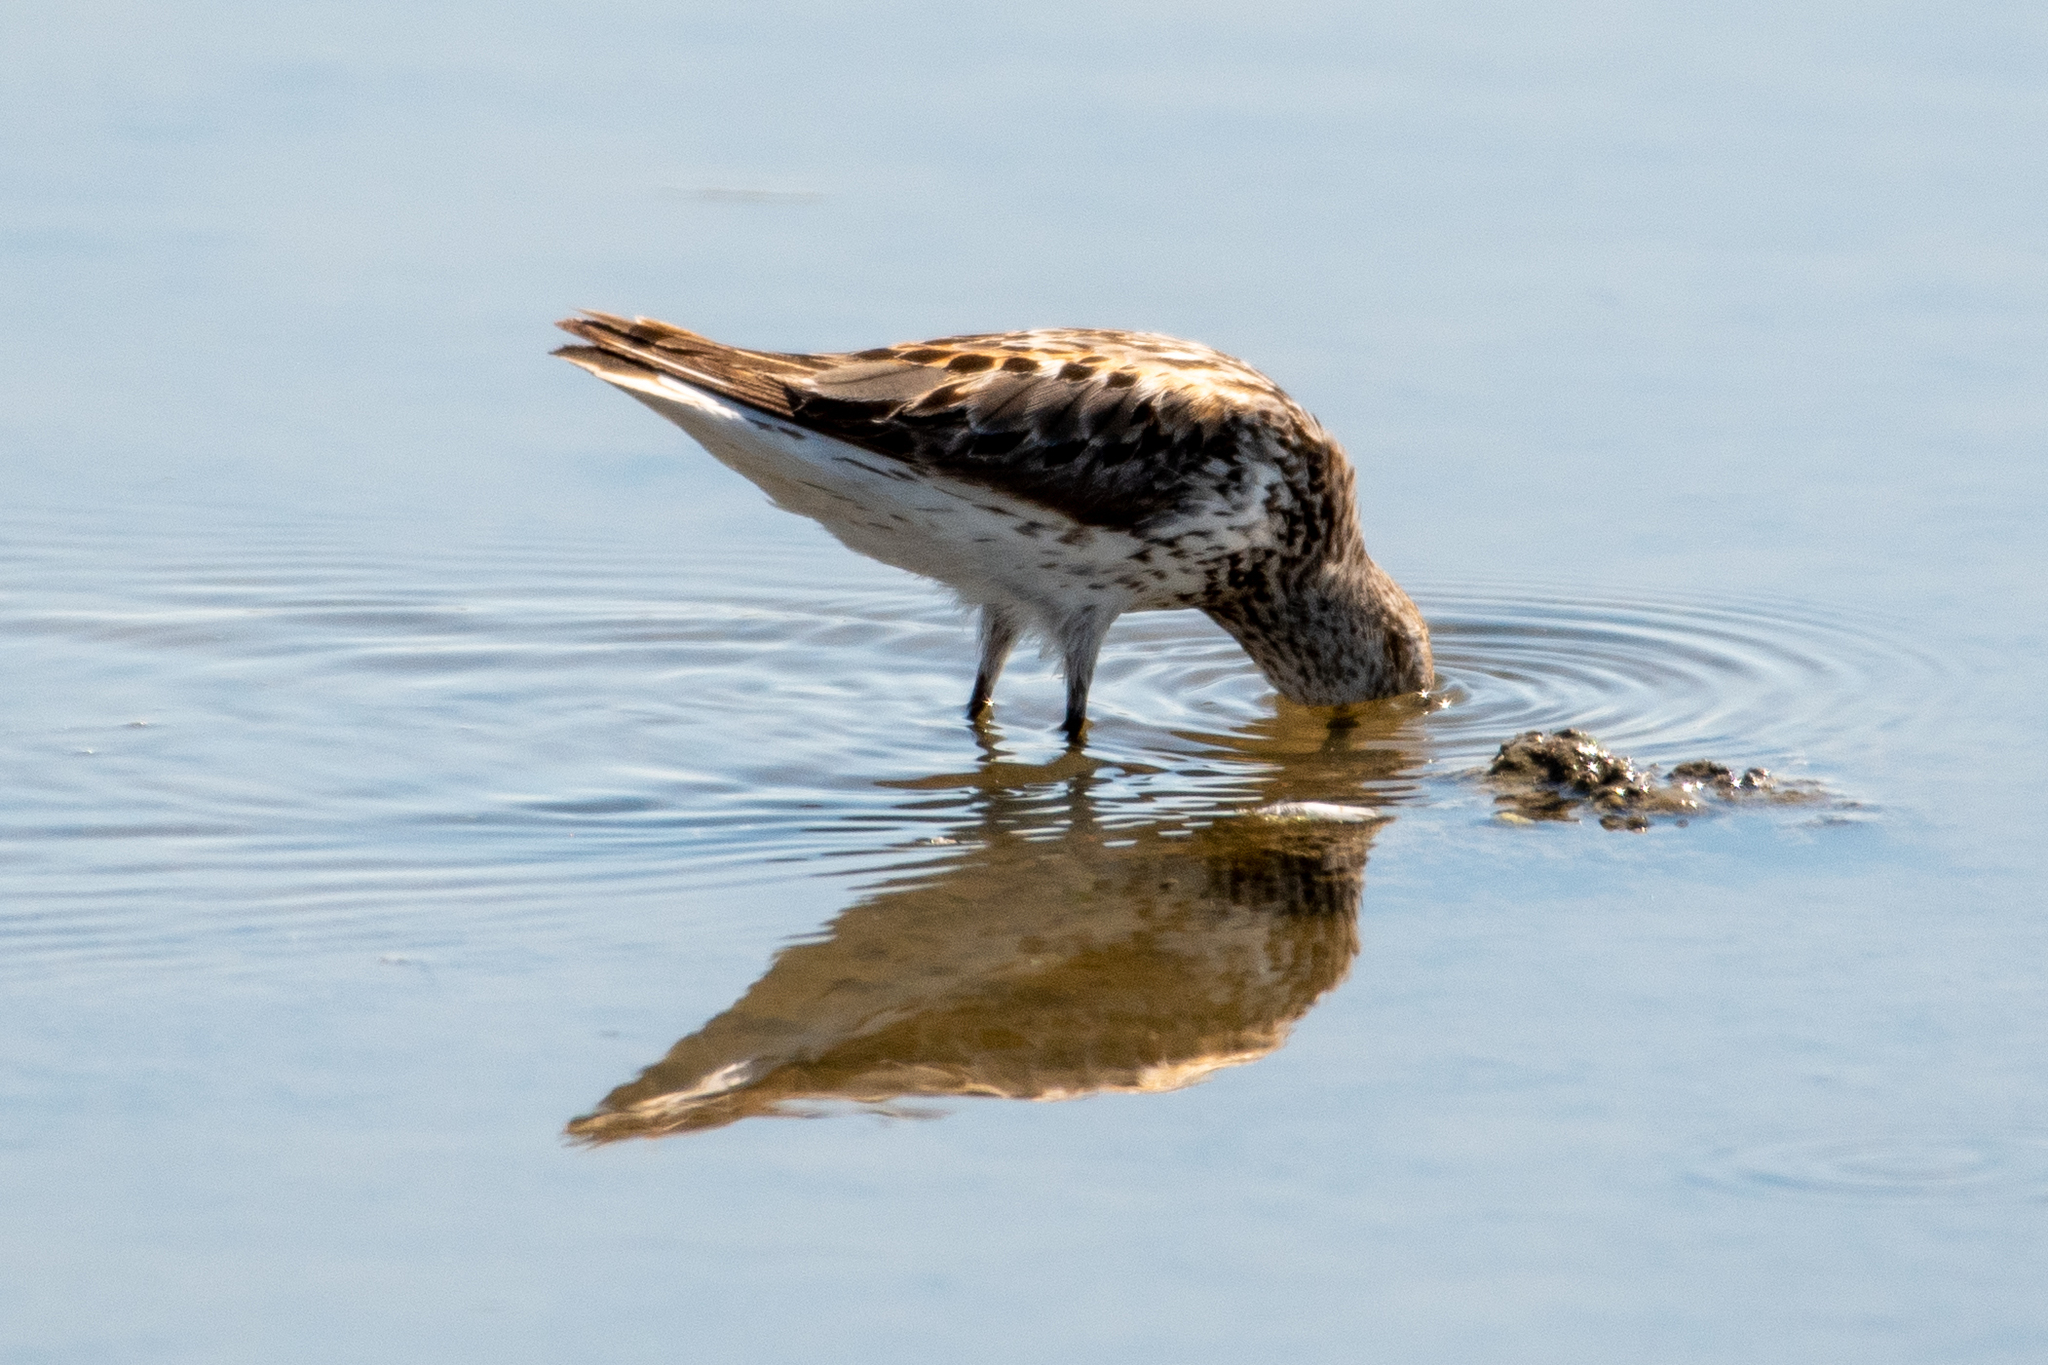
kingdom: Animalia
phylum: Chordata
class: Aves
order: Charadriiformes
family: Scolopacidae
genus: Calidris
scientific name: Calidris minutilla
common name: Least sandpiper
